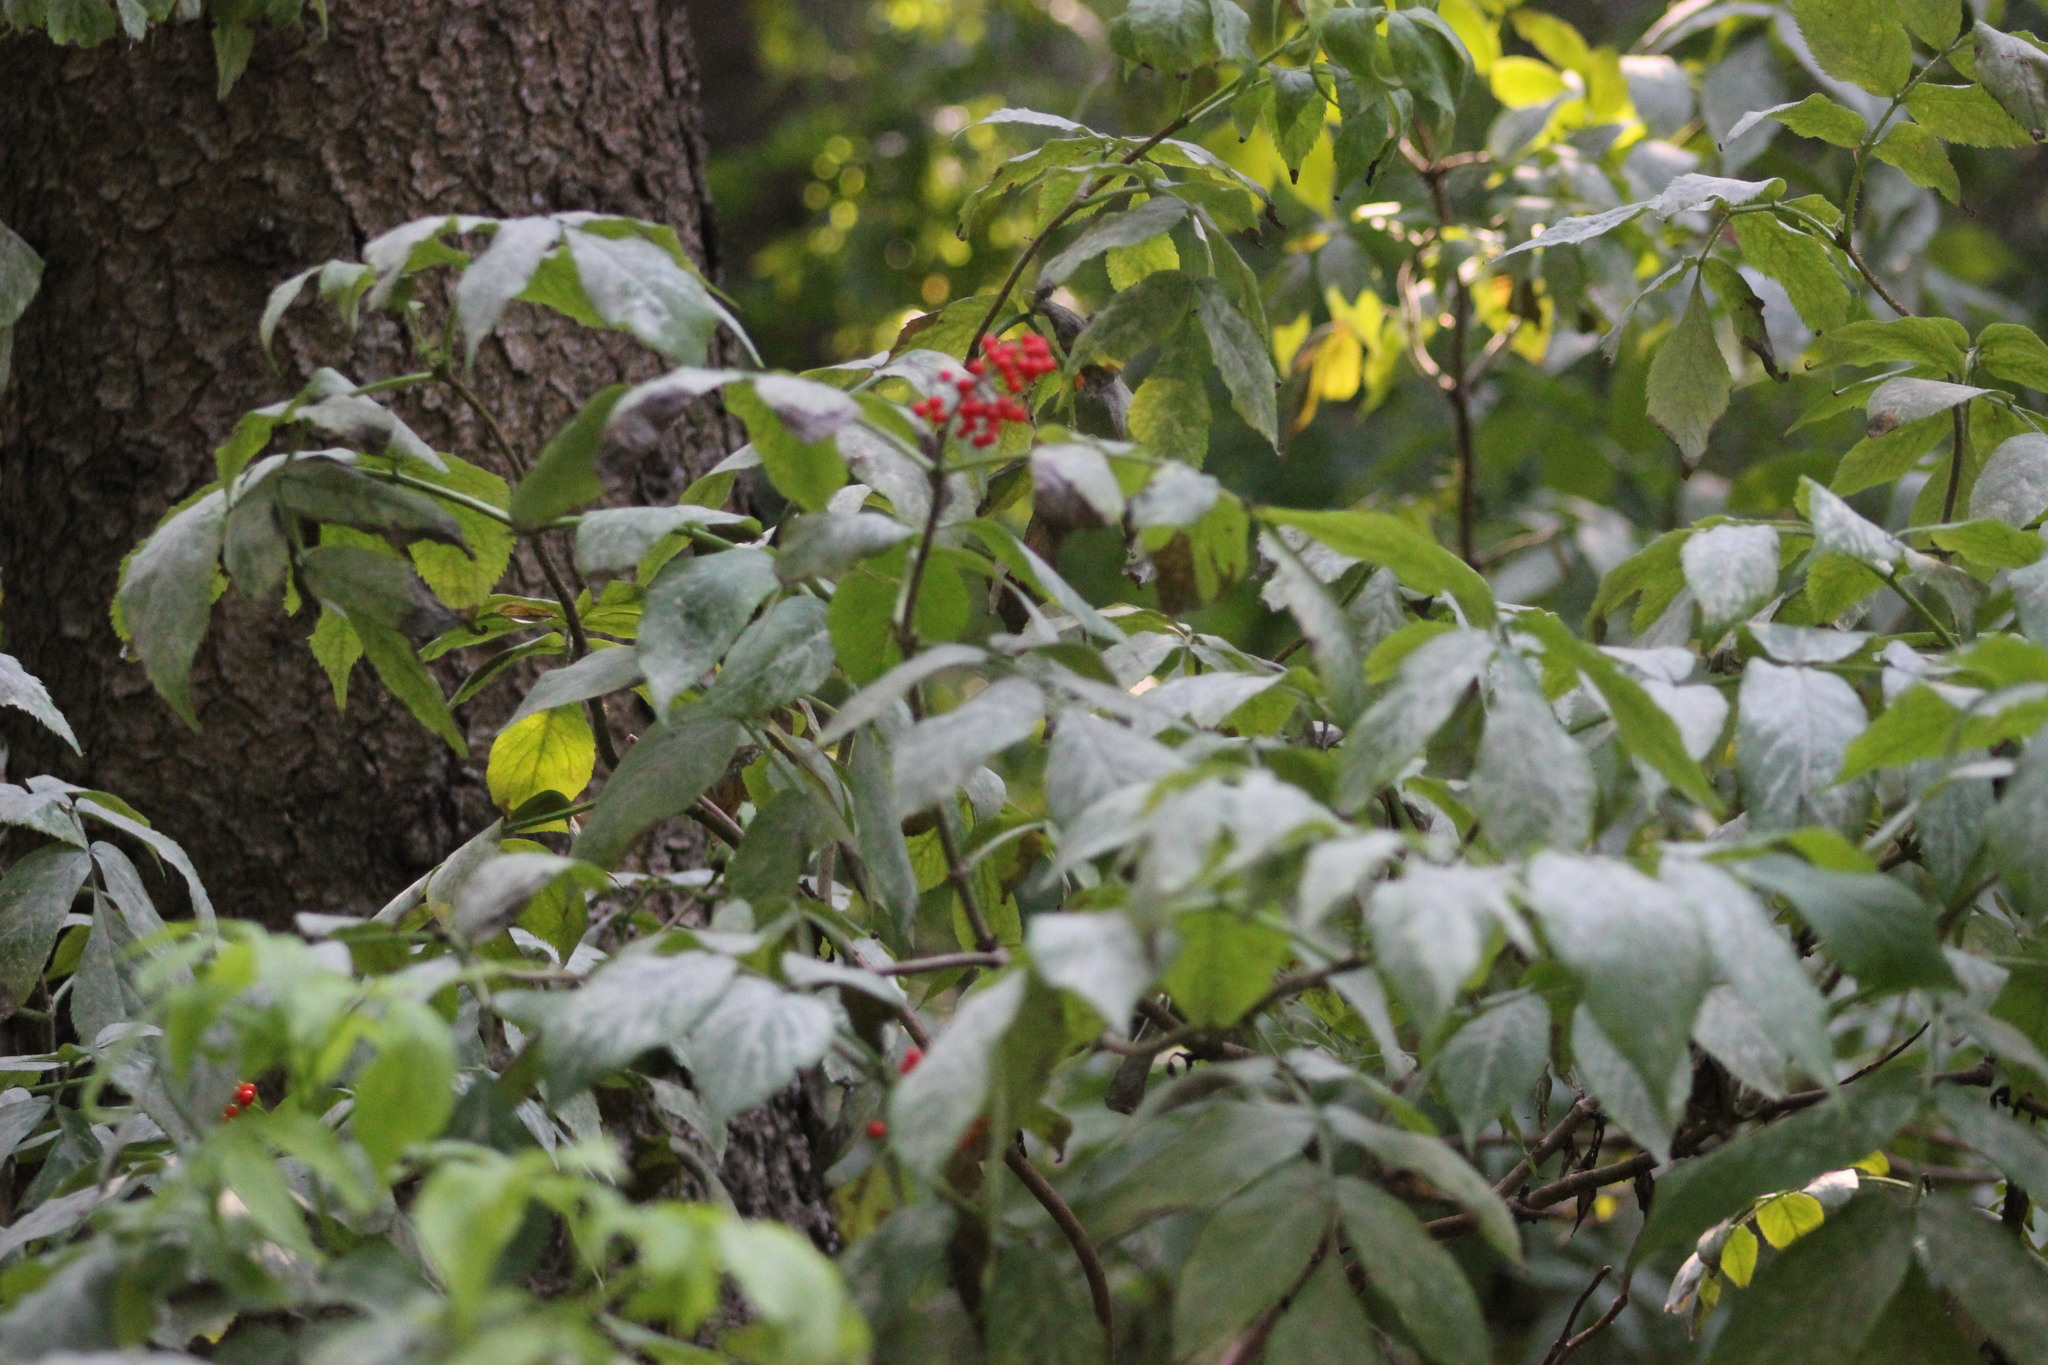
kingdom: Plantae
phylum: Tracheophyta
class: Magnoliopsida
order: Dipsacales
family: Viburnaceae
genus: Sambucus
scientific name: Sambucus sibirica
